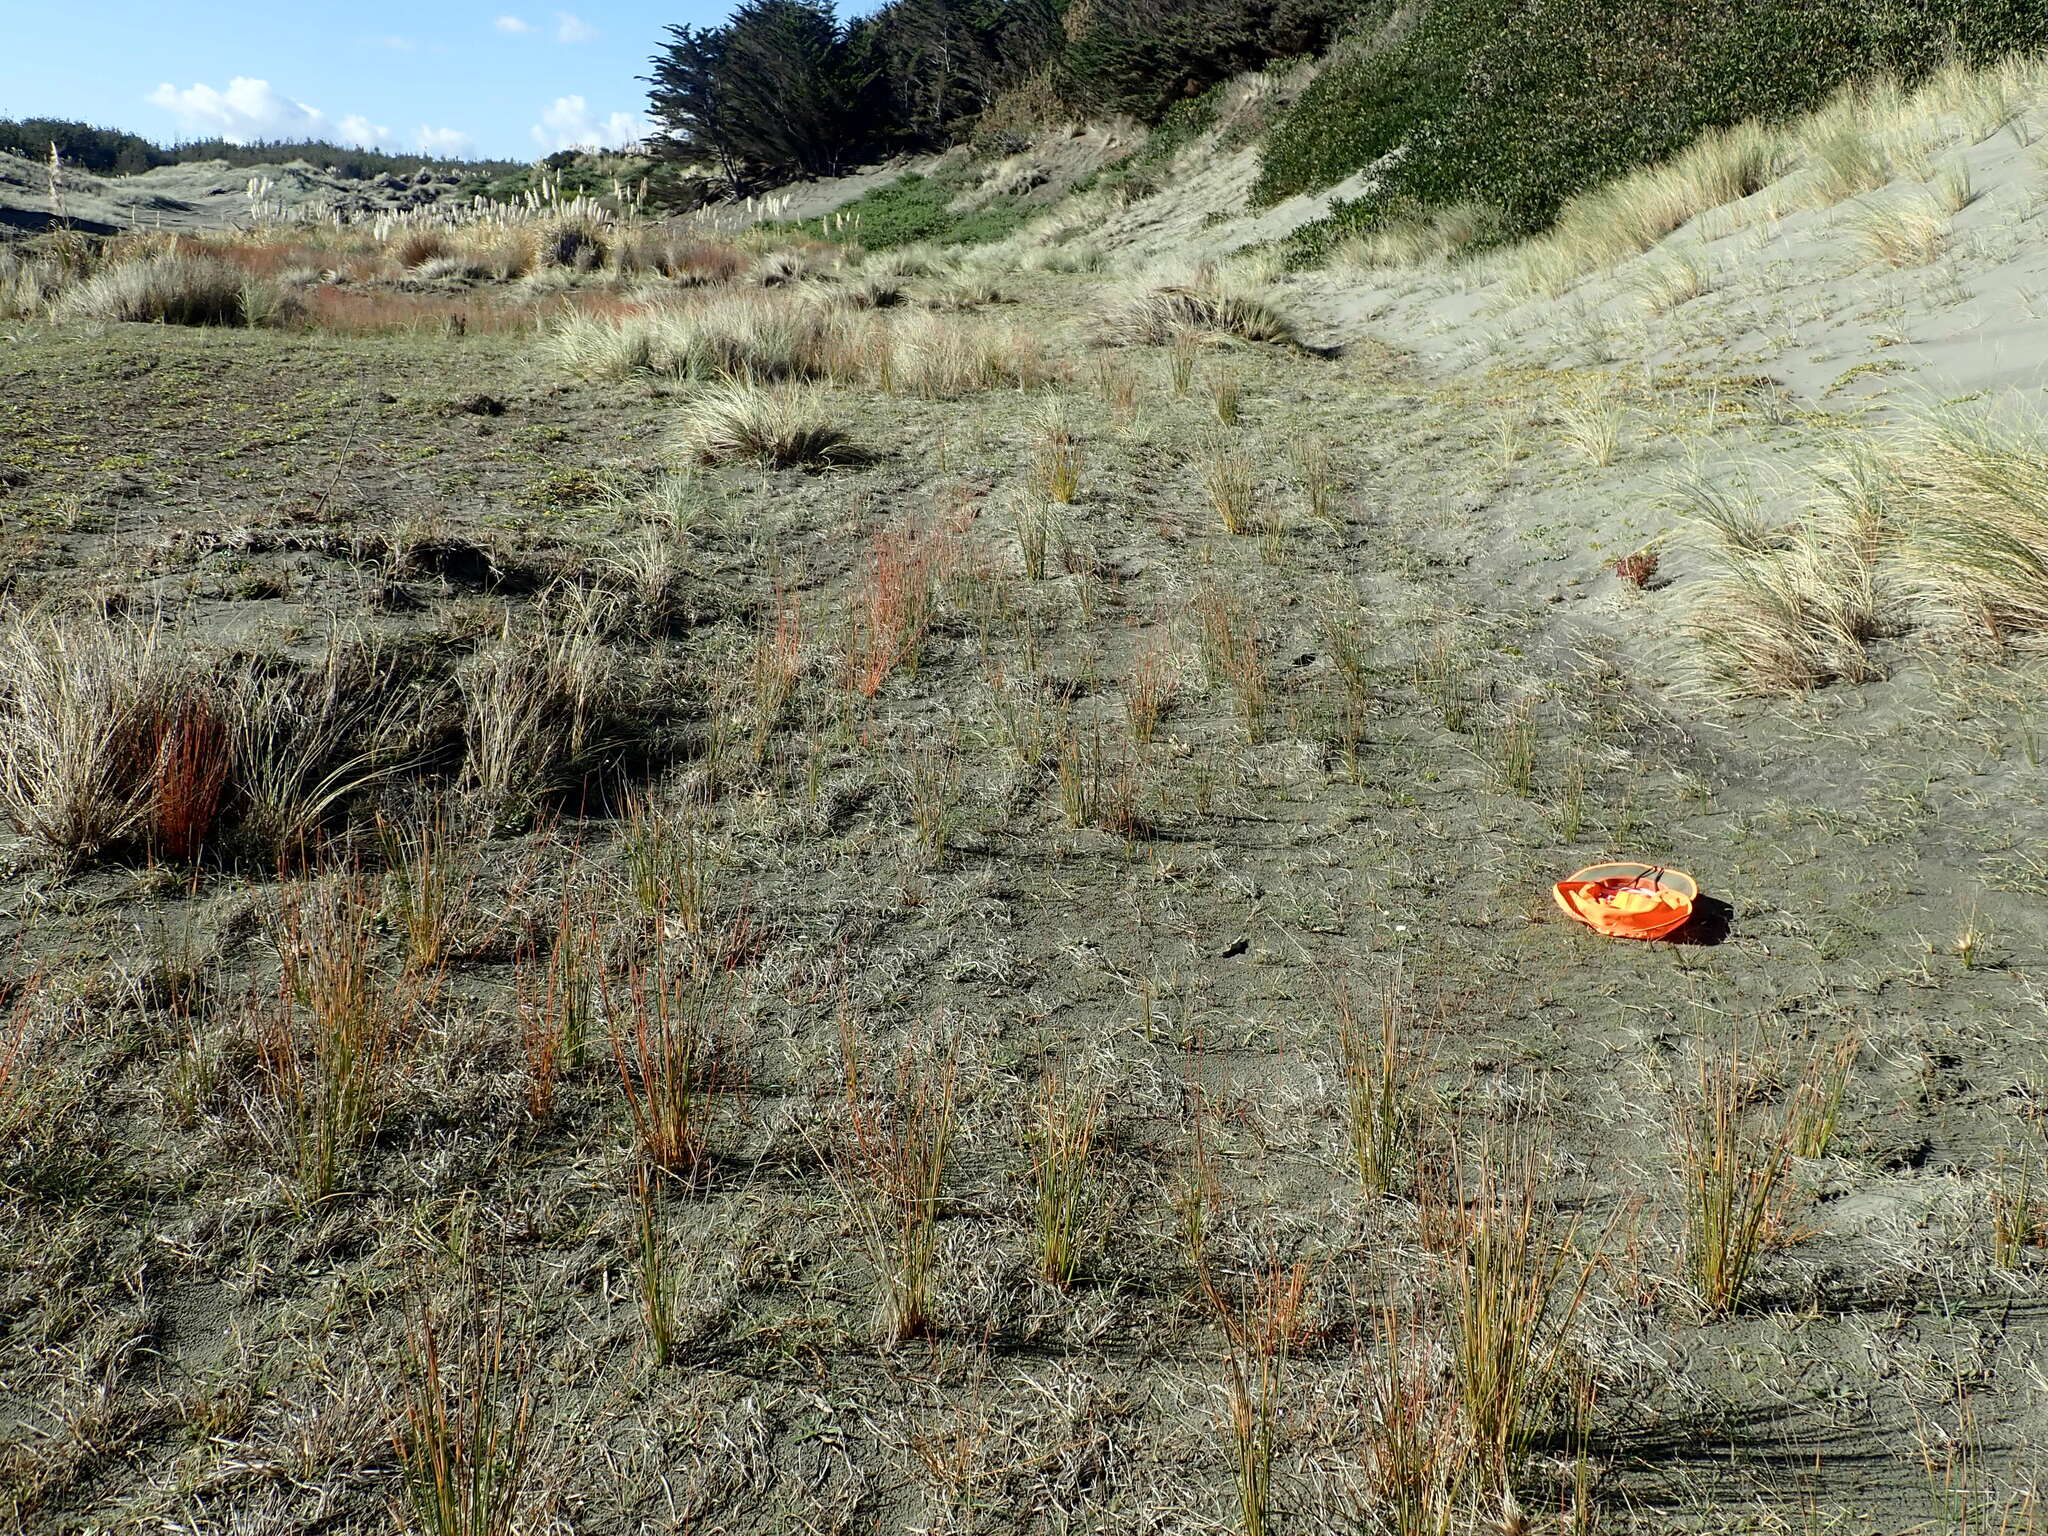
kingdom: Plantae
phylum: Tracheophyta
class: Magnoliopsida
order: Asterales
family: Goodeniaceae
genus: Goodenia
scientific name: Goodenia heenanii
